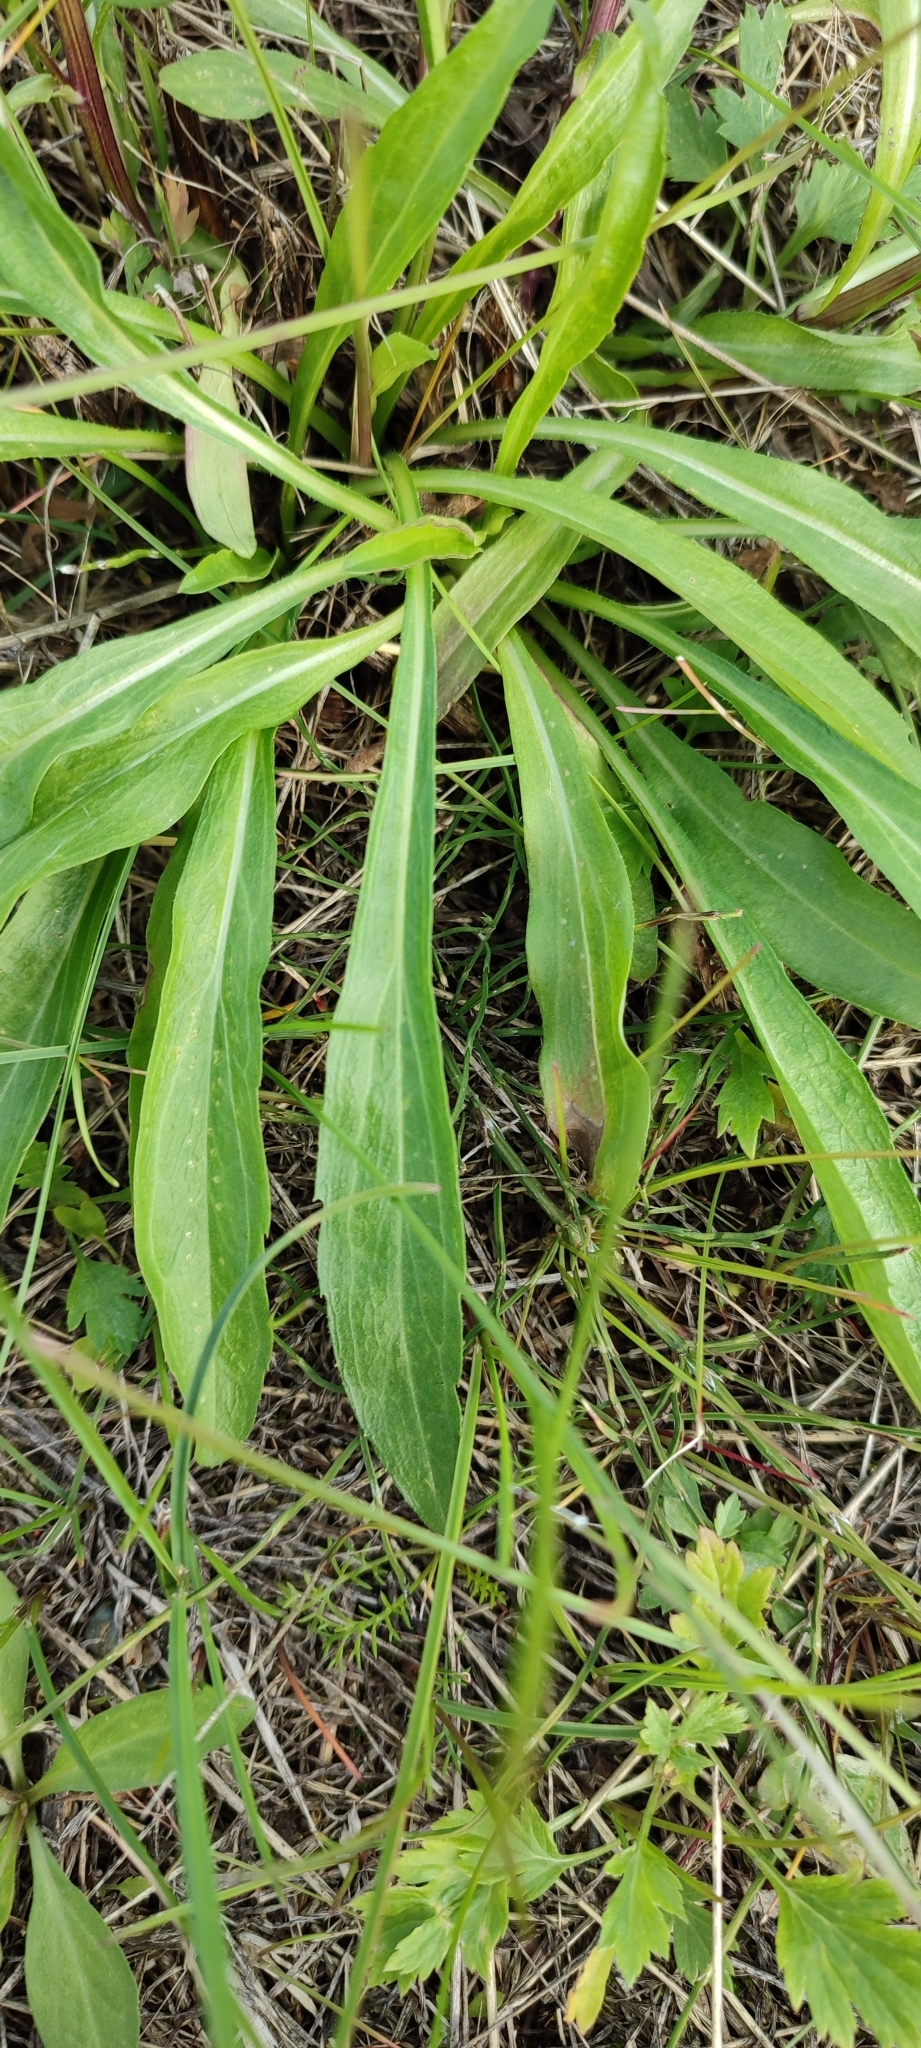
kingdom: Plantae
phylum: Tracheophyta
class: Magnoliopsida
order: Asterales
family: Asteraceae
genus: Erigeron
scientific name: Erigeron
